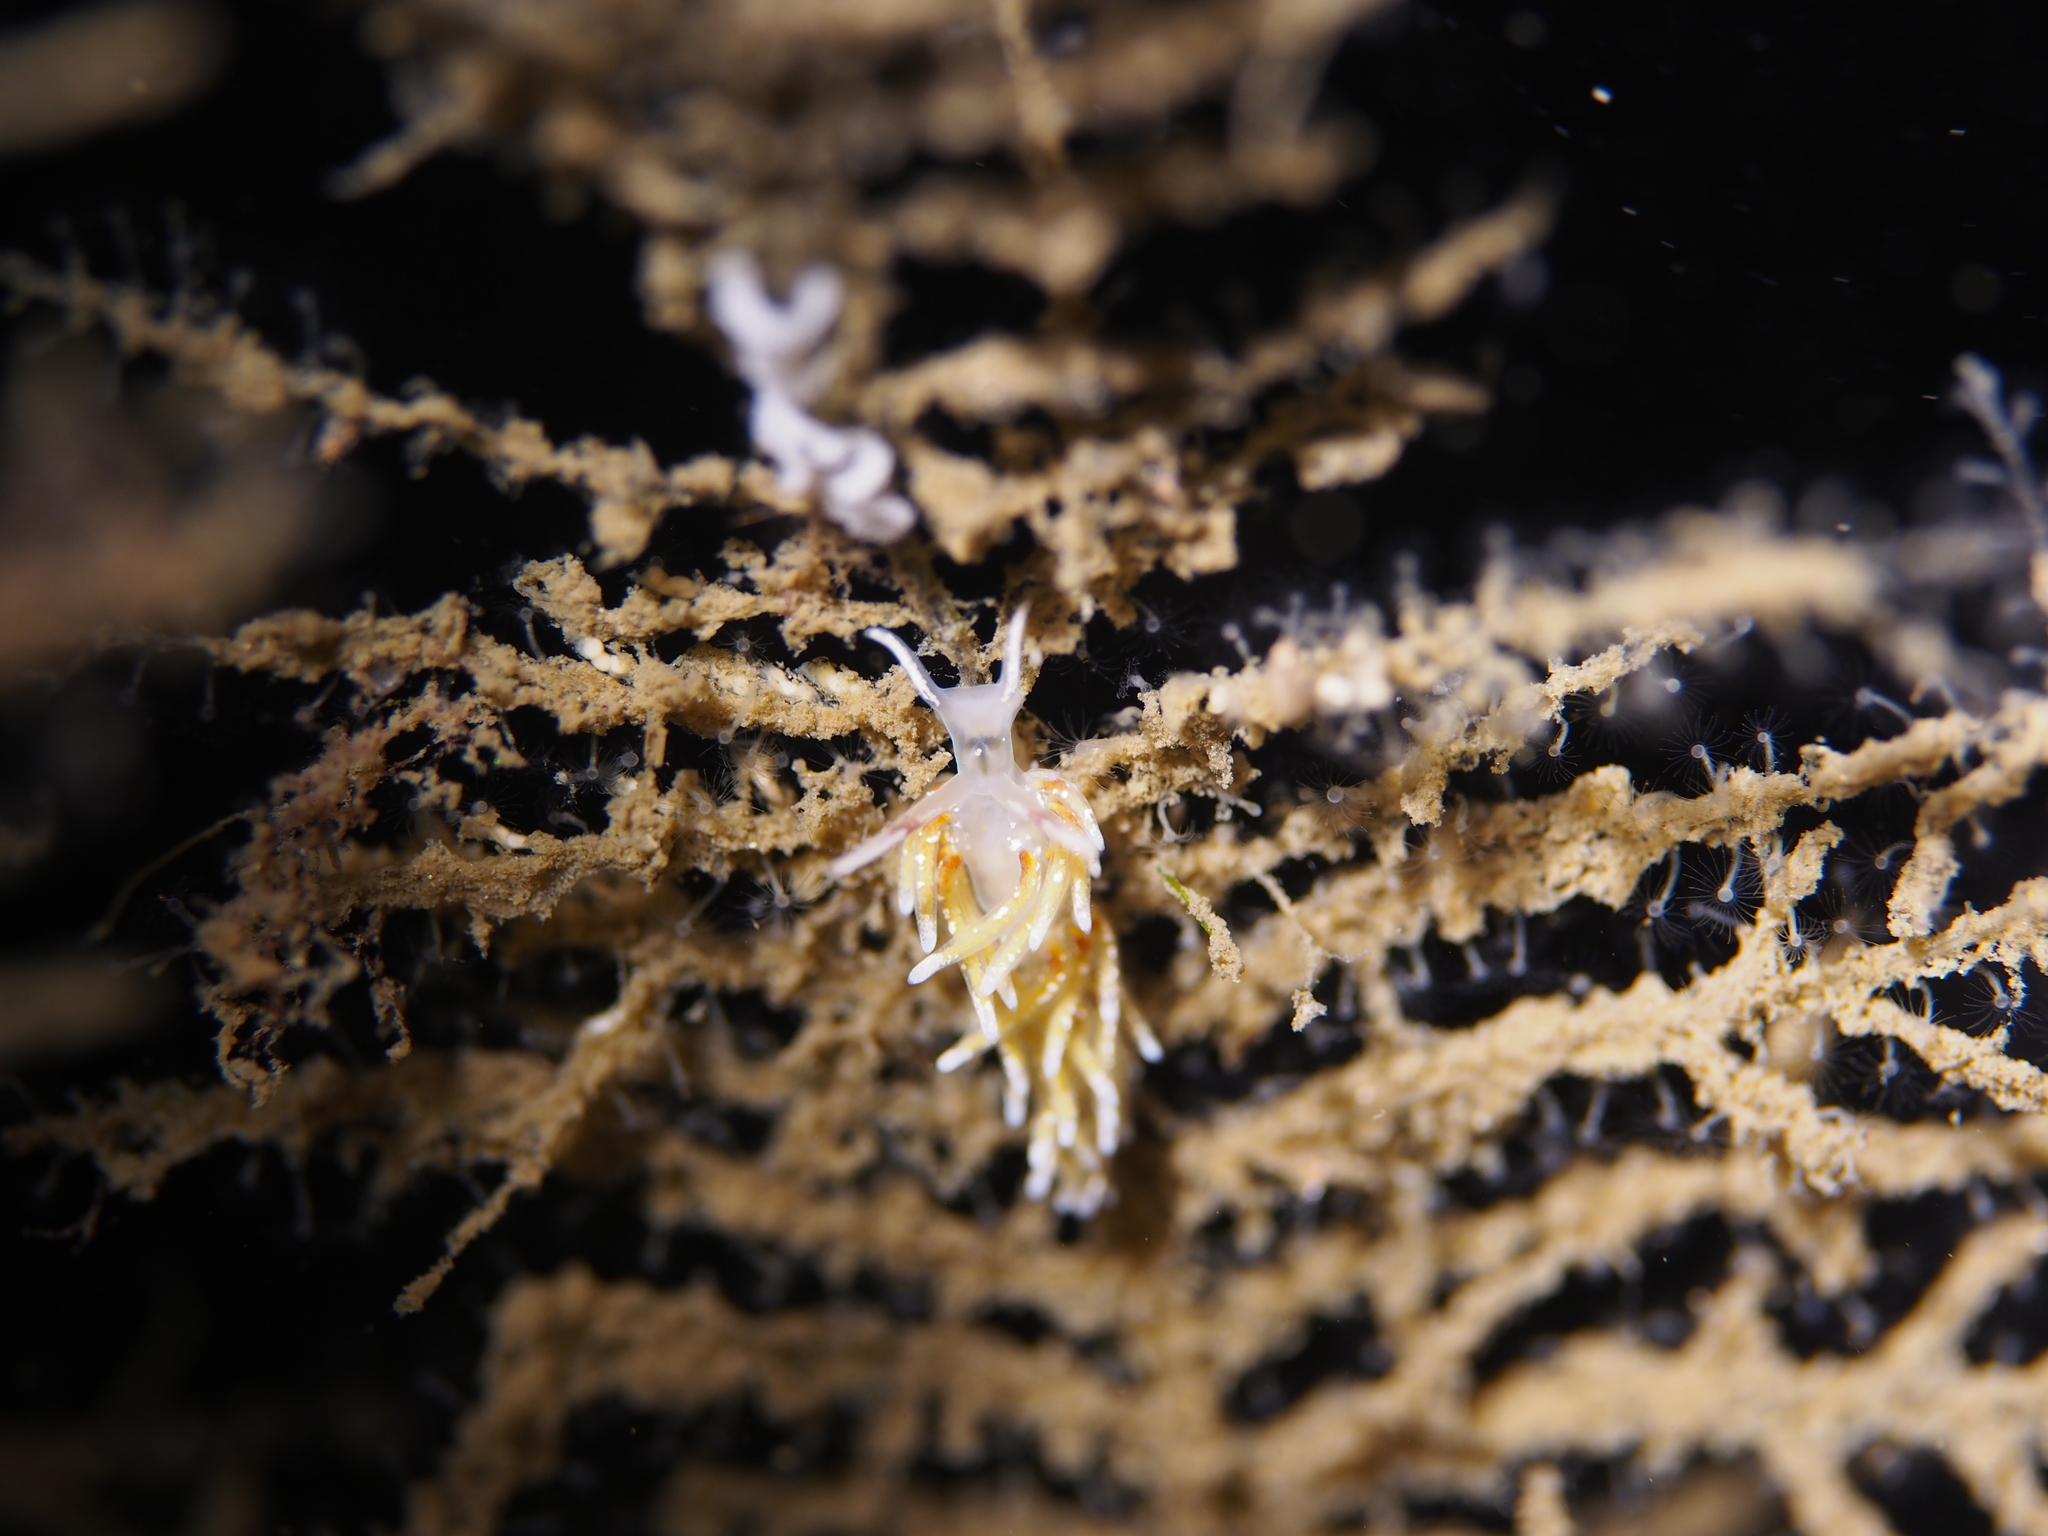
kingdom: Animalia
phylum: Mollusca
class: Gastropoda
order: Nudibranchia
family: Trinchesiidae
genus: Rubramoena
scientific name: Rubramoena rubescens
